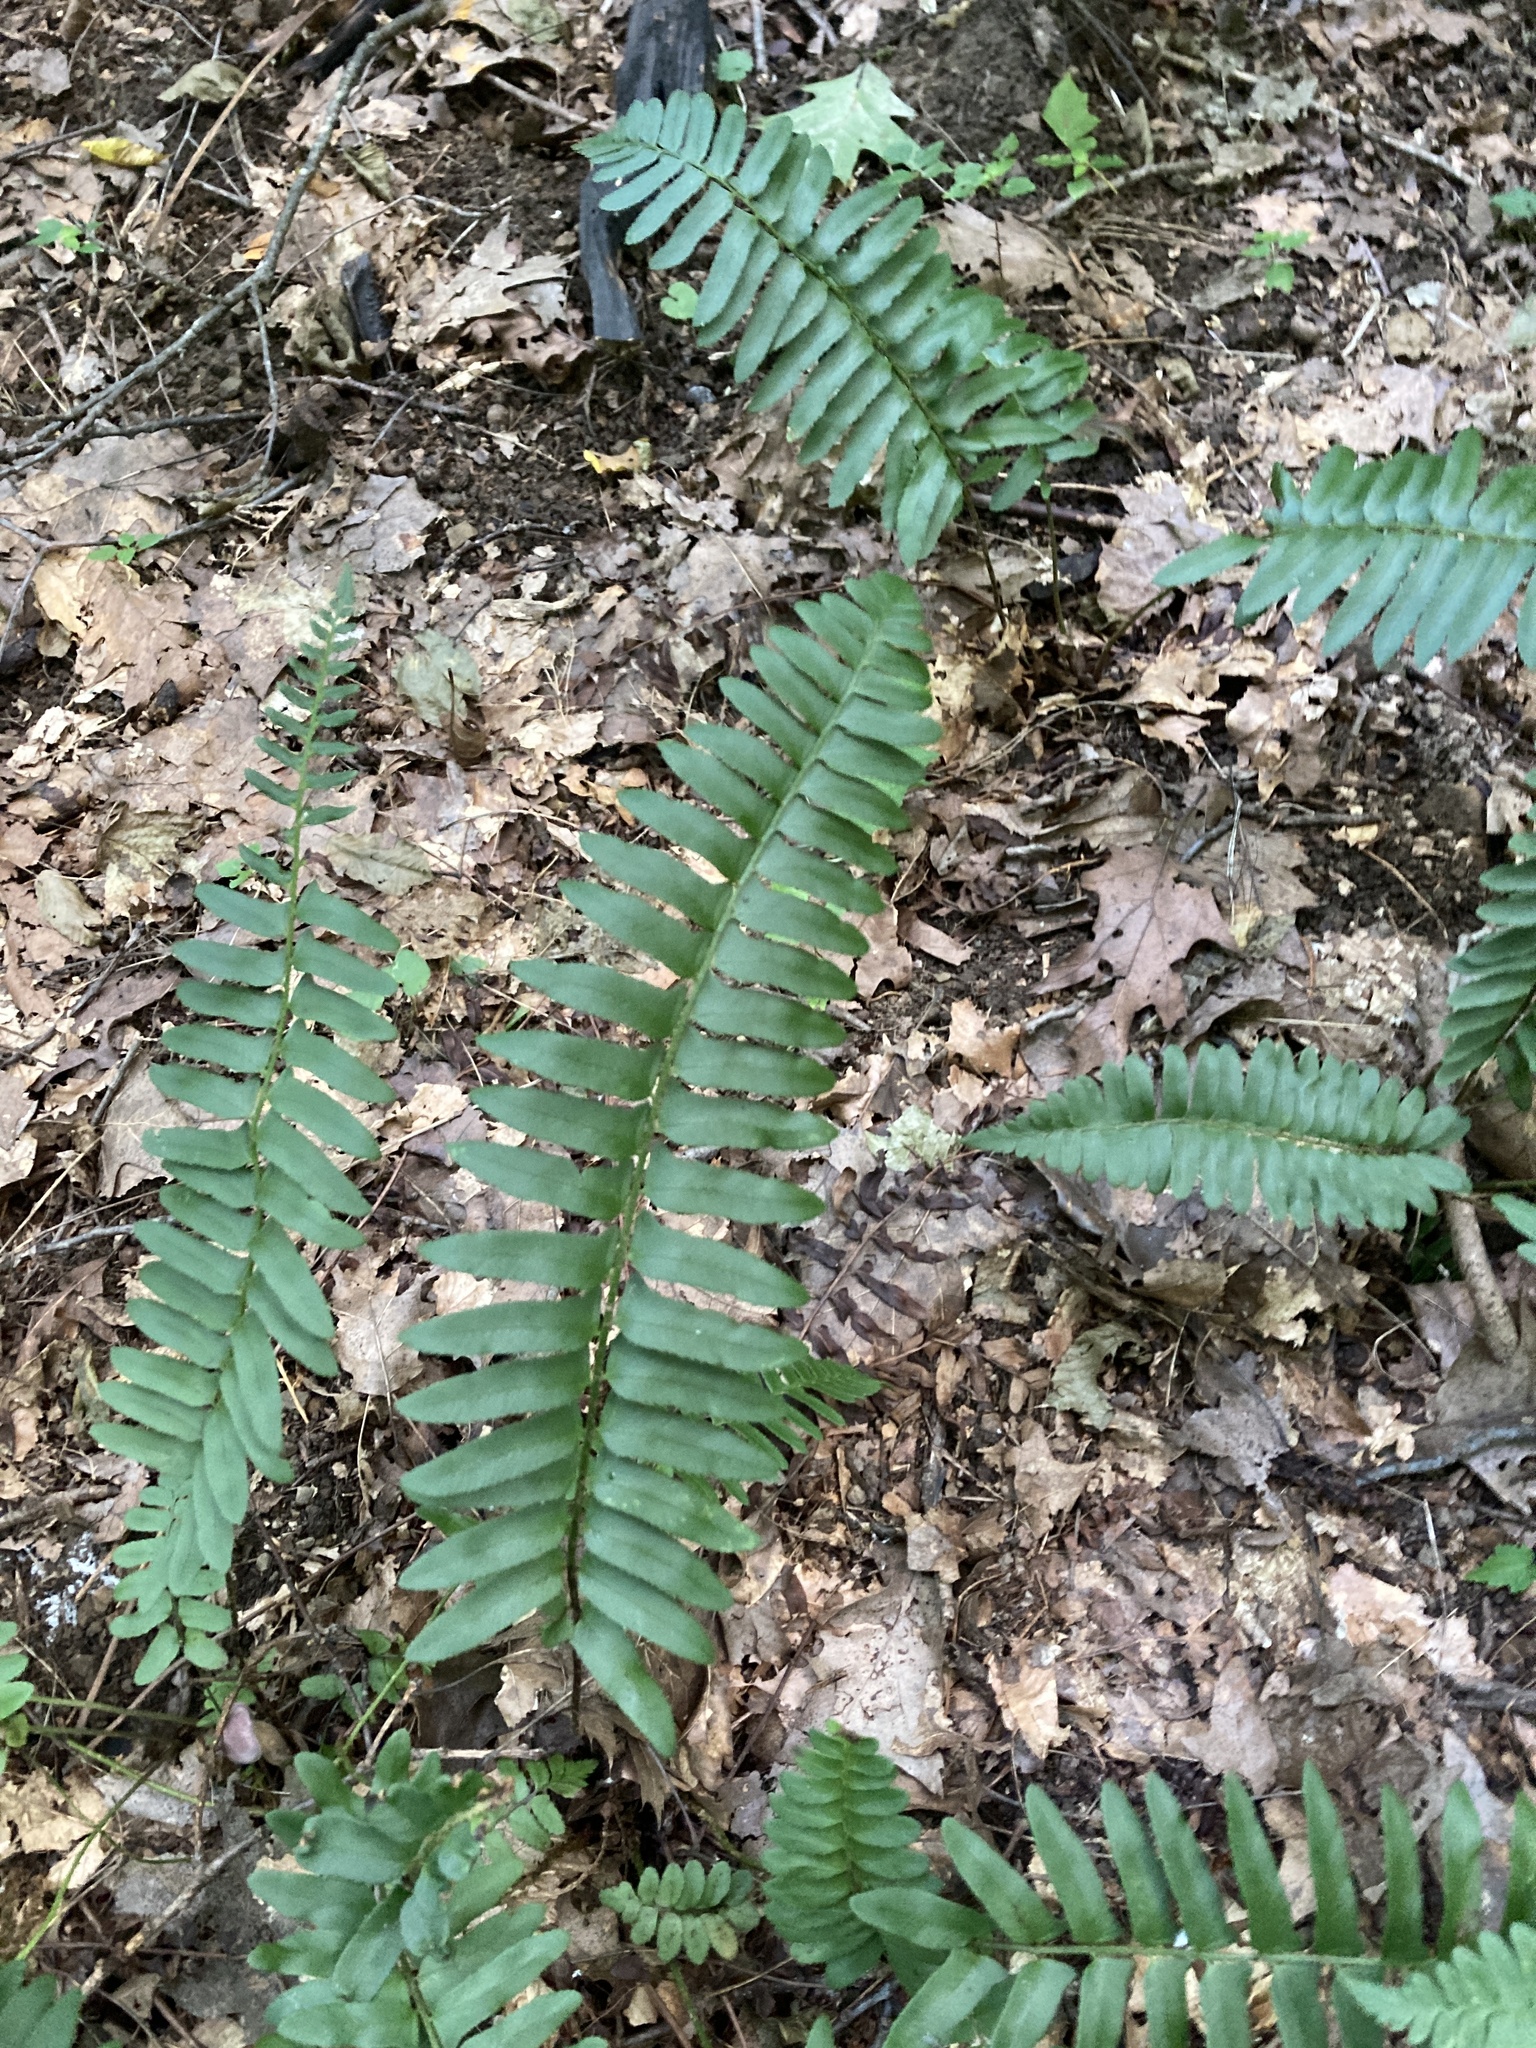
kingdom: Plantae
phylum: Tracheophyta
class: Polypodiopsida
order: Polypodiales
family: Dryopteridaceae
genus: Polystichum
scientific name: Polystichum acrostichoides
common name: Christmas fern
